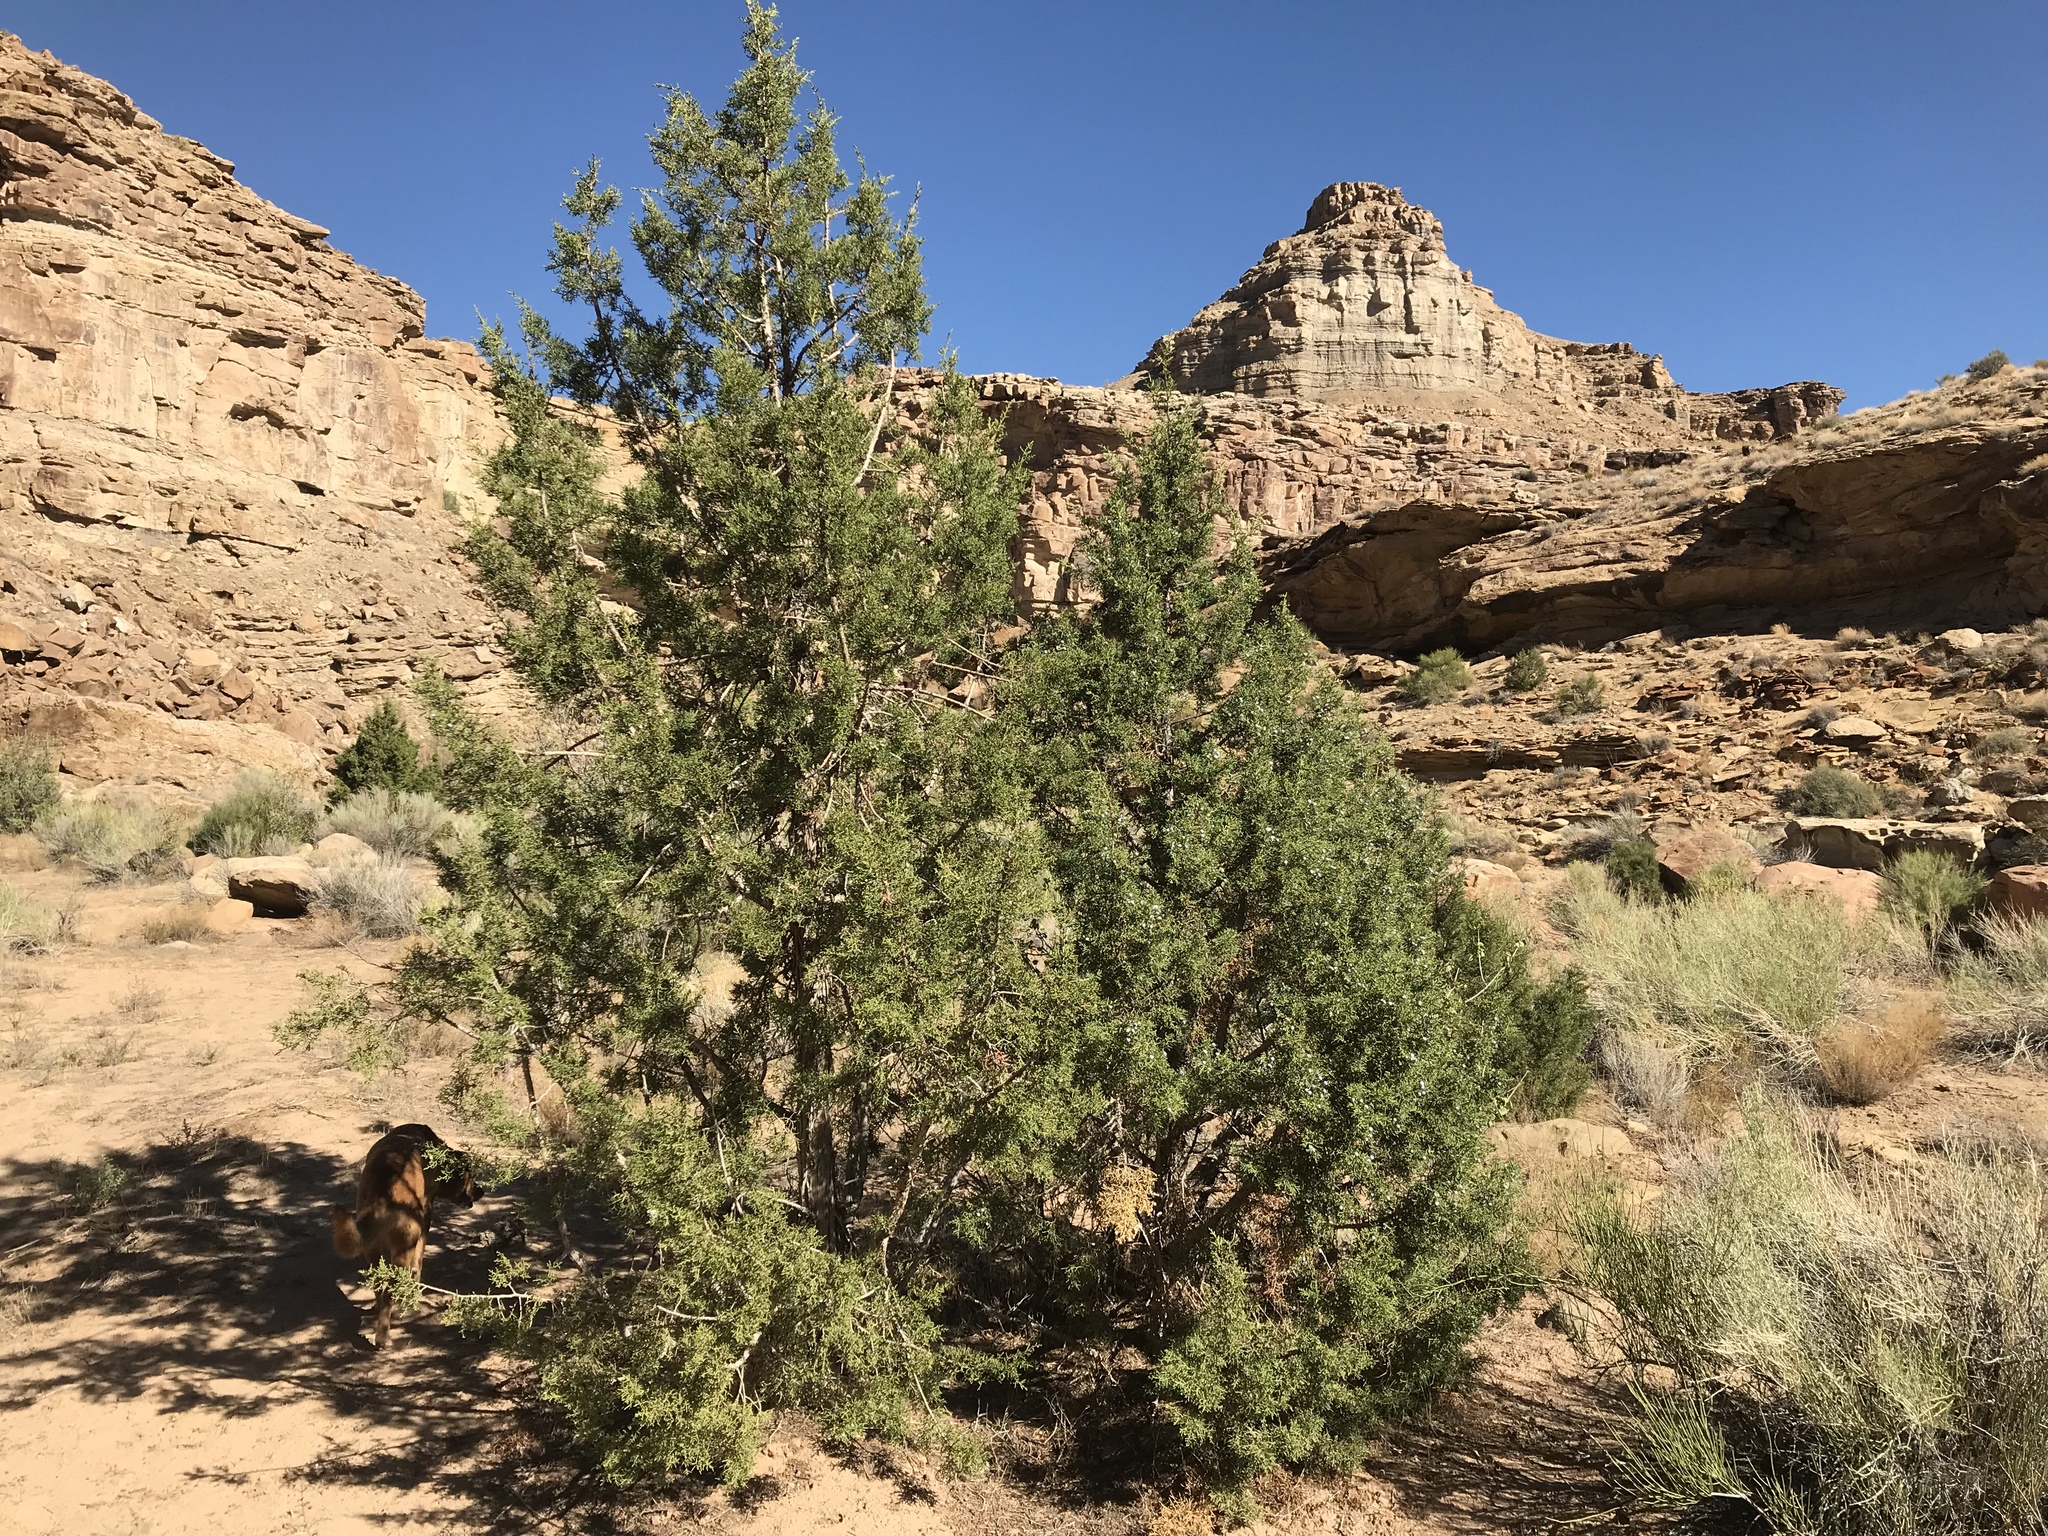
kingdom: Plantae
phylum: Tracheophyta
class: Pinopsida
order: Pinales
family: Cupressaceae
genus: Juniperus
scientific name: Juniperus osteosperma
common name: Utah juniper
